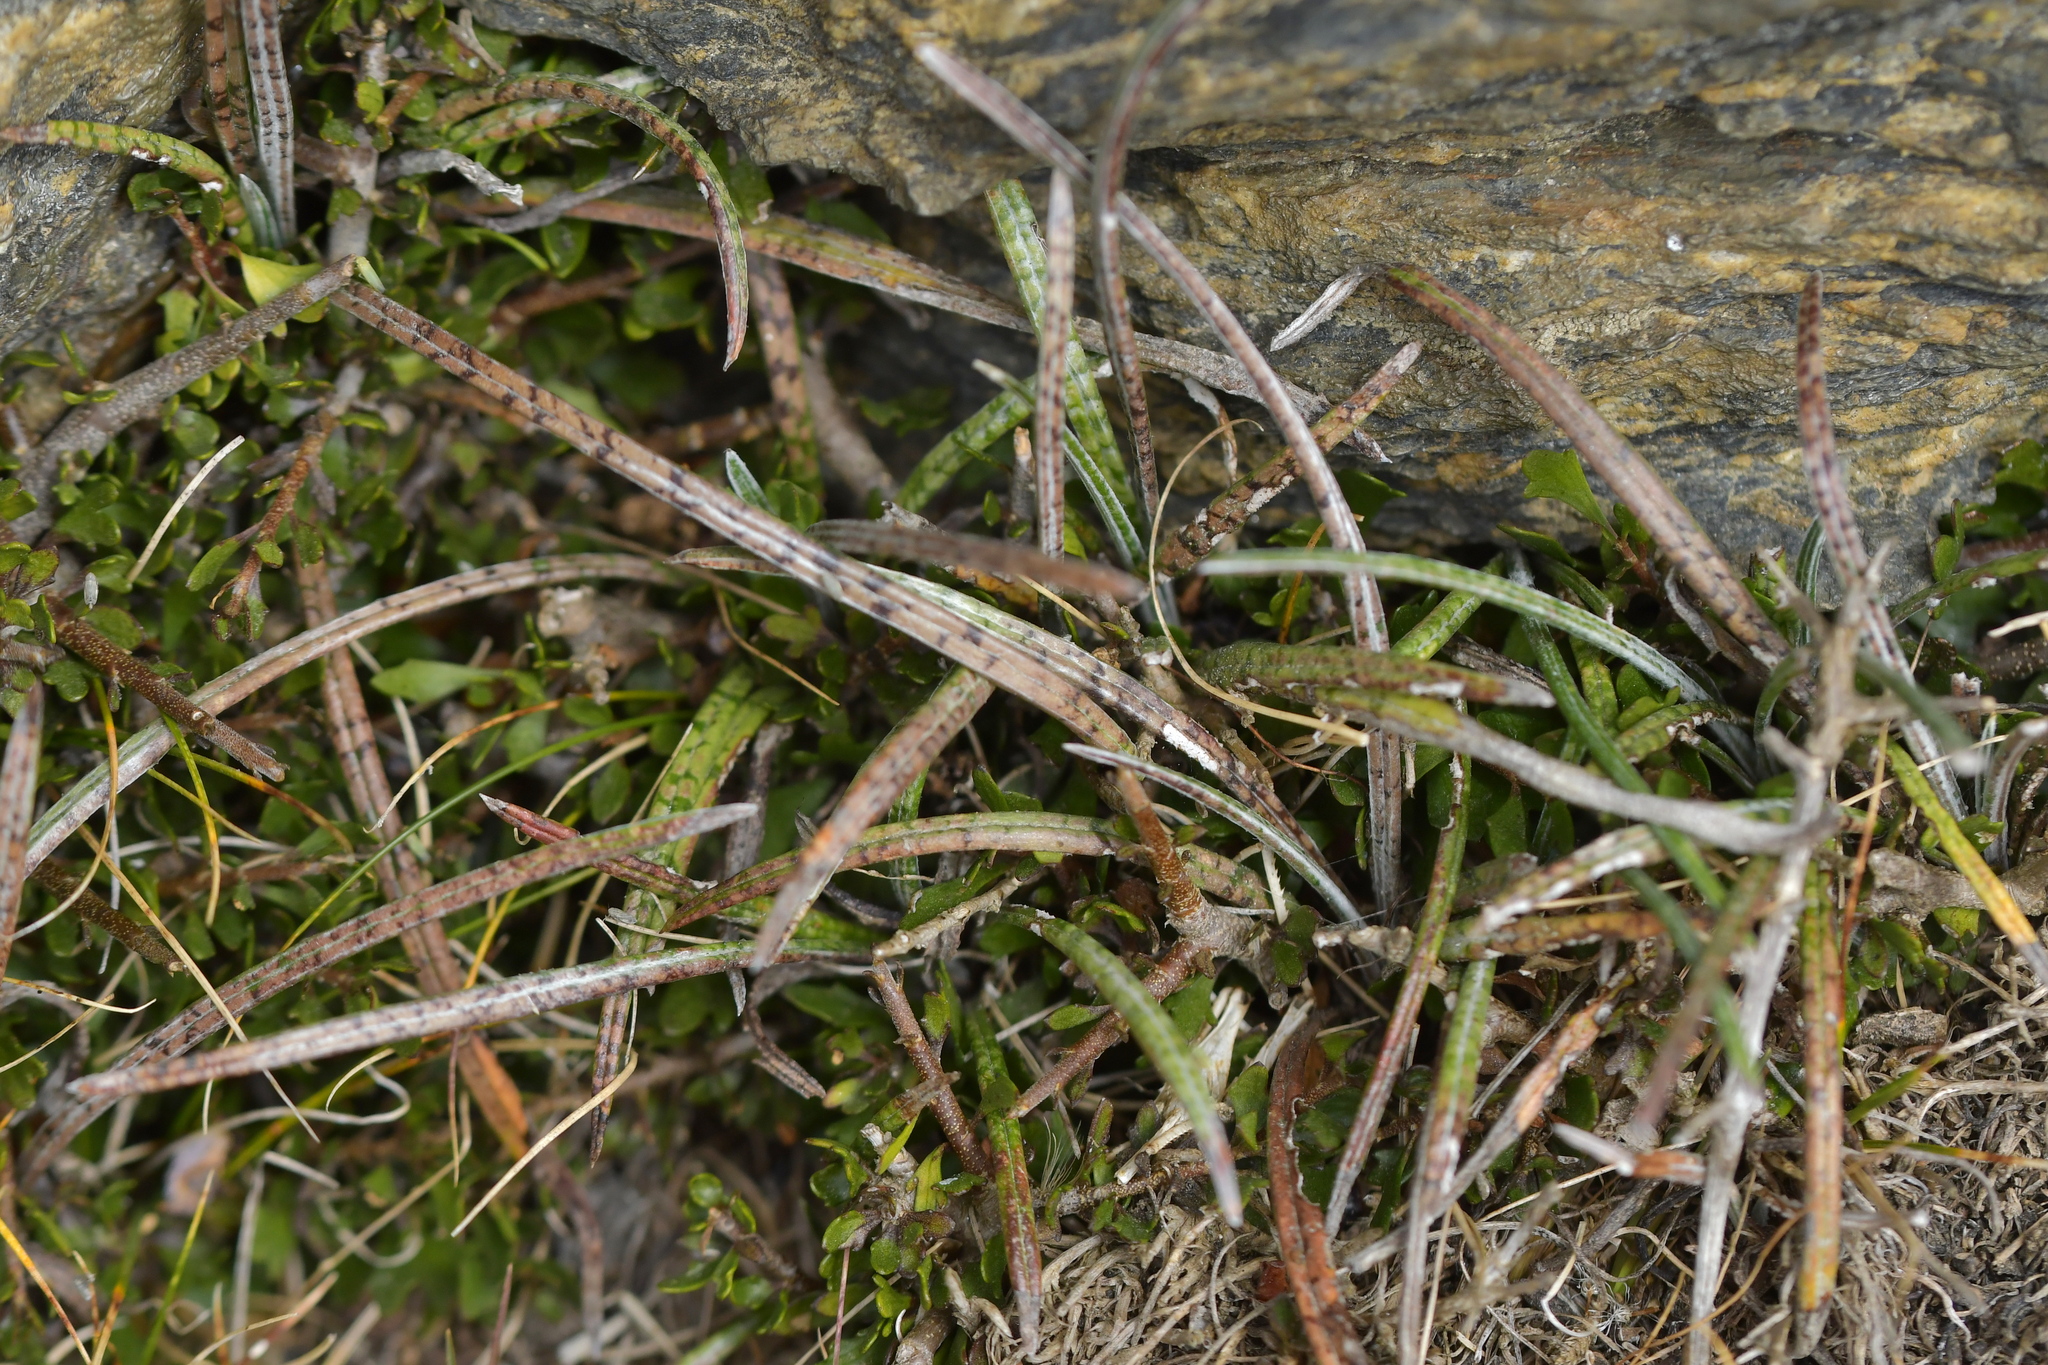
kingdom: Plantae
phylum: Tracheophyta
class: Magnoliopsida
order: Asterales
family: Asteraceae
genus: Celmisia
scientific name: Celmisia gracilenta
